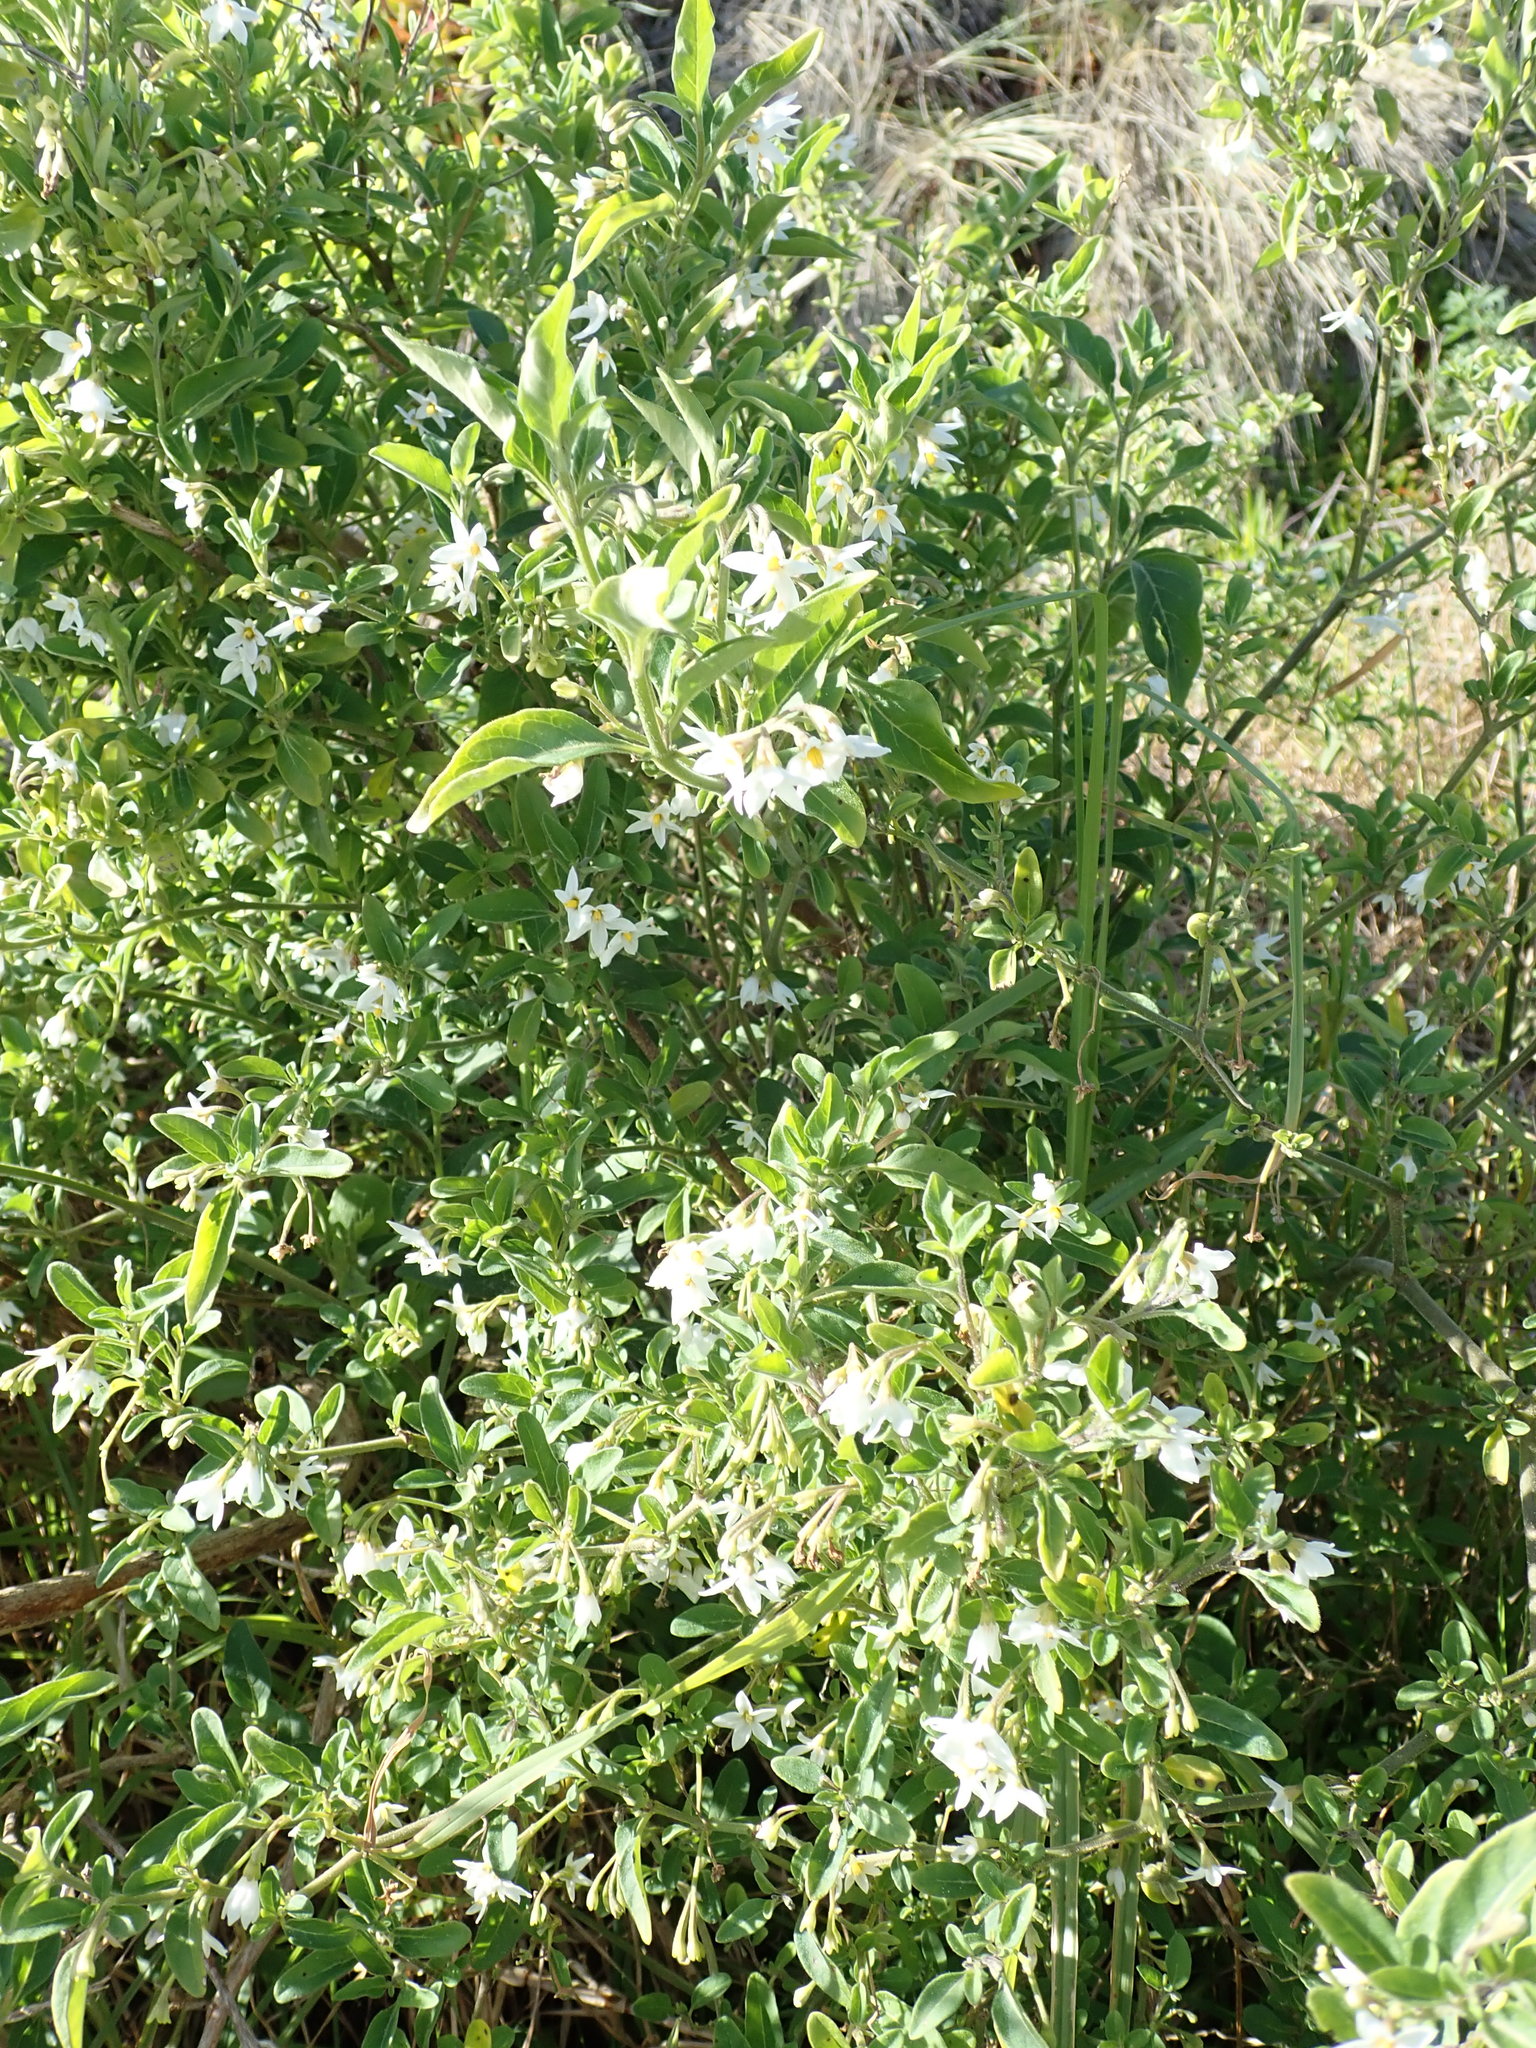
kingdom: Plantae
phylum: Tracheophyta
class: Magnoliopsida
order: Solanales
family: Solanaceae
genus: Solanum
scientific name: Solanum chenopodioides
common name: Tall nightshade
